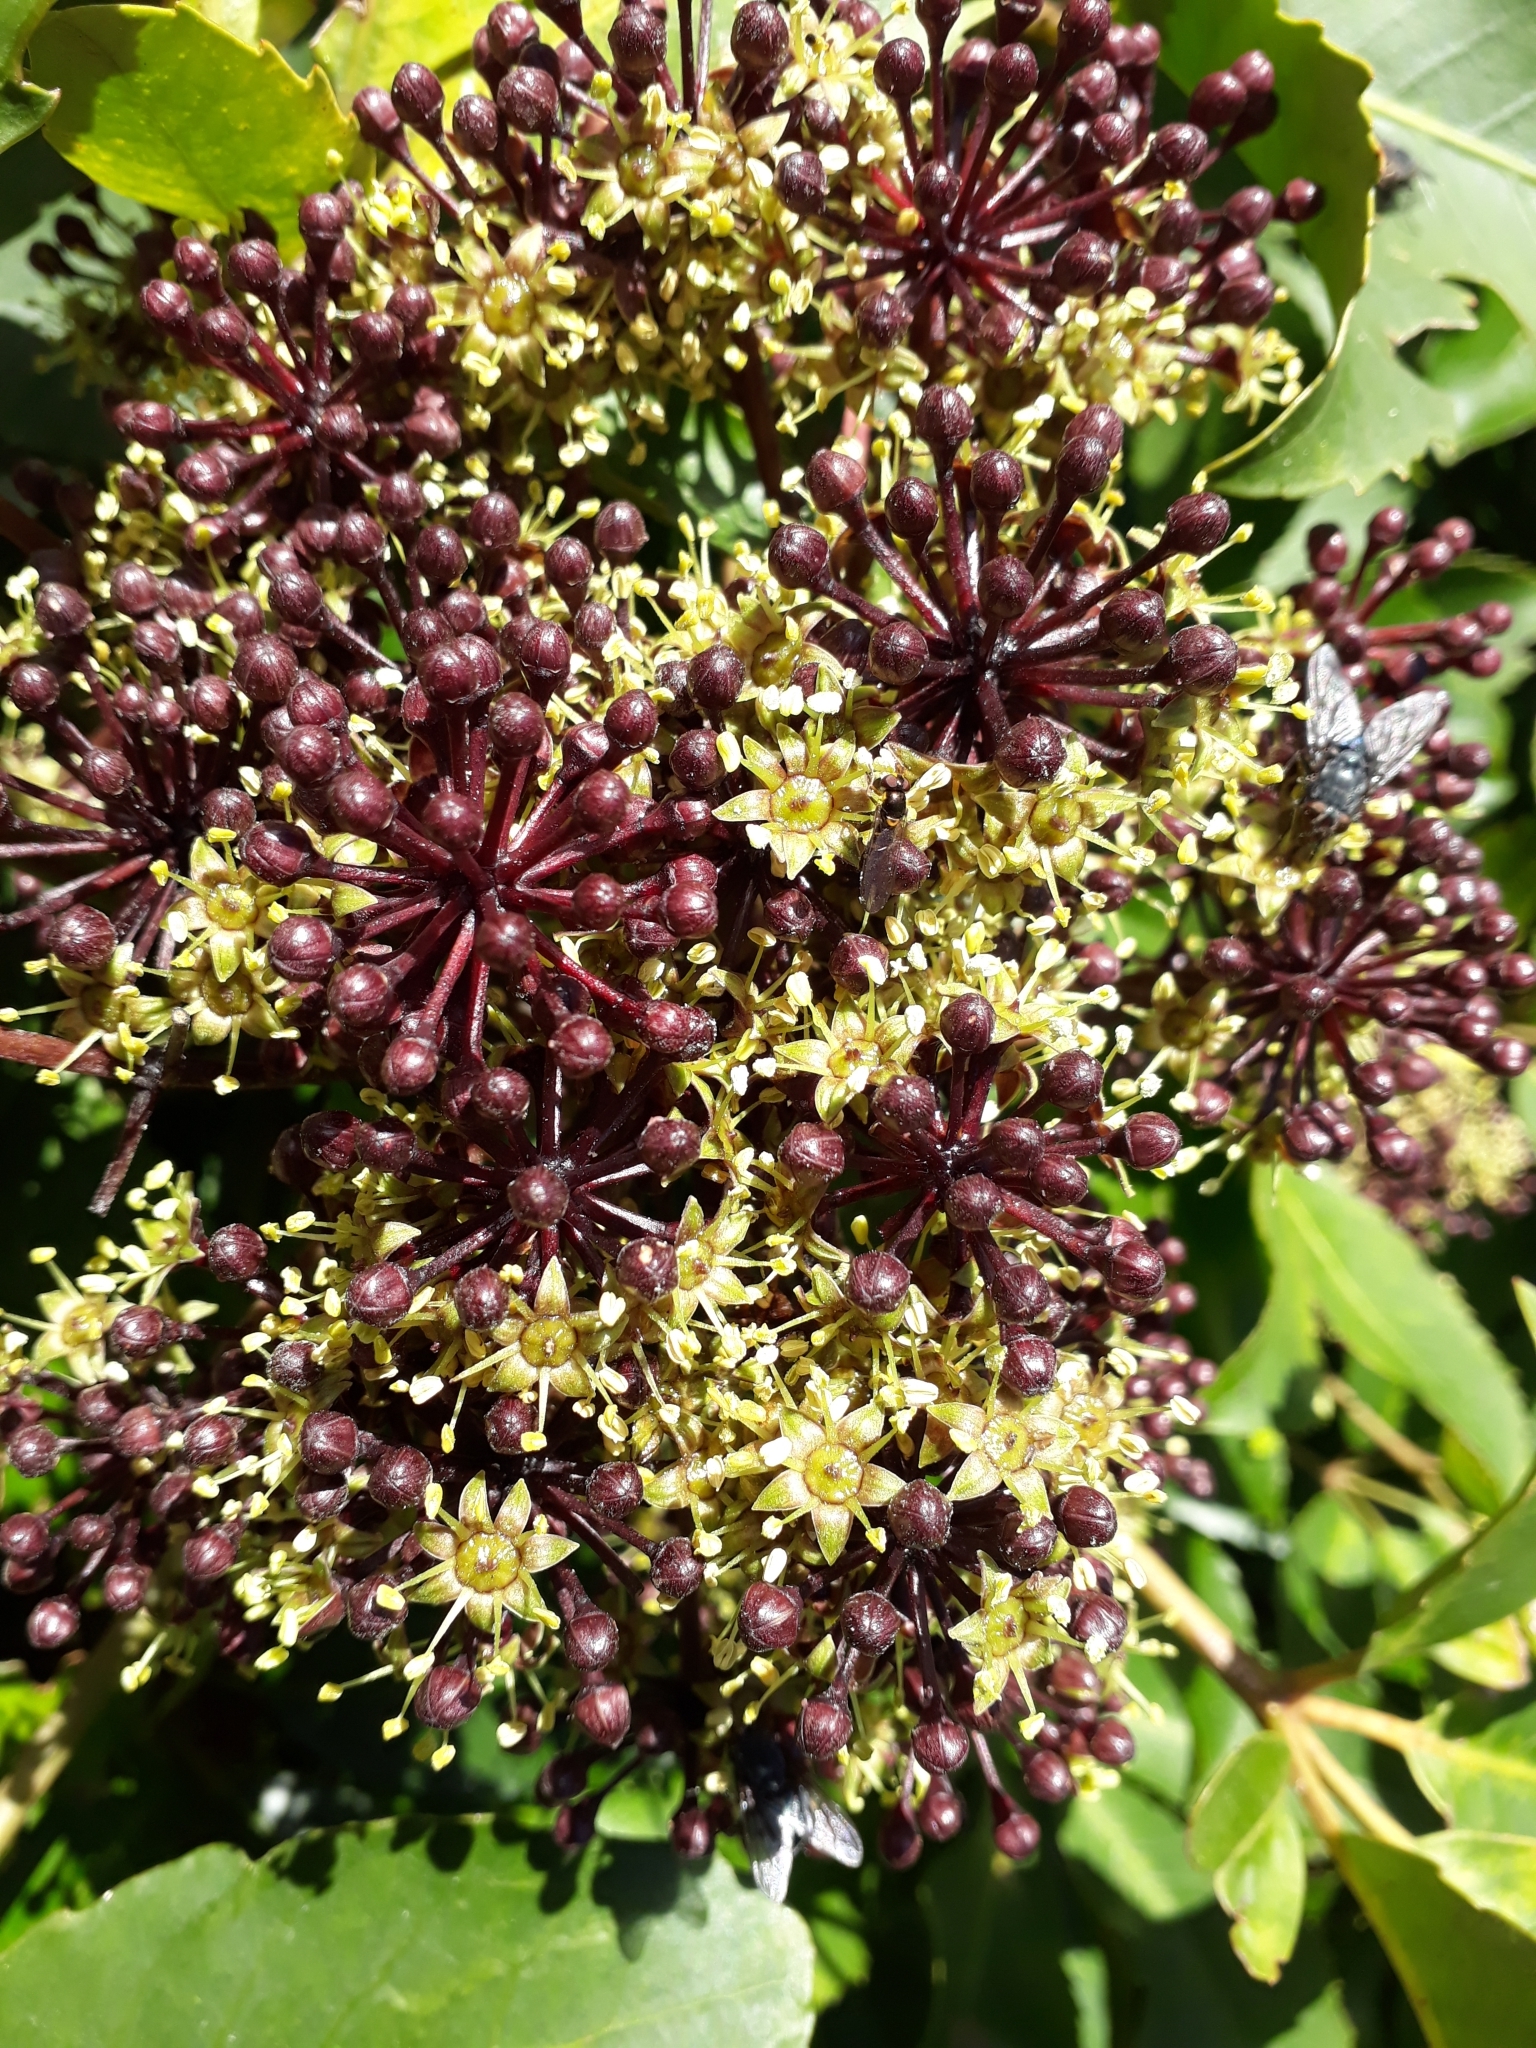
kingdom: Plantae
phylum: Tracheophyta
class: Magnoliopsida
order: Apiales
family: Araliaceae
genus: Neopanax
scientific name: Neopanax arboreus
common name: Five-fingers
